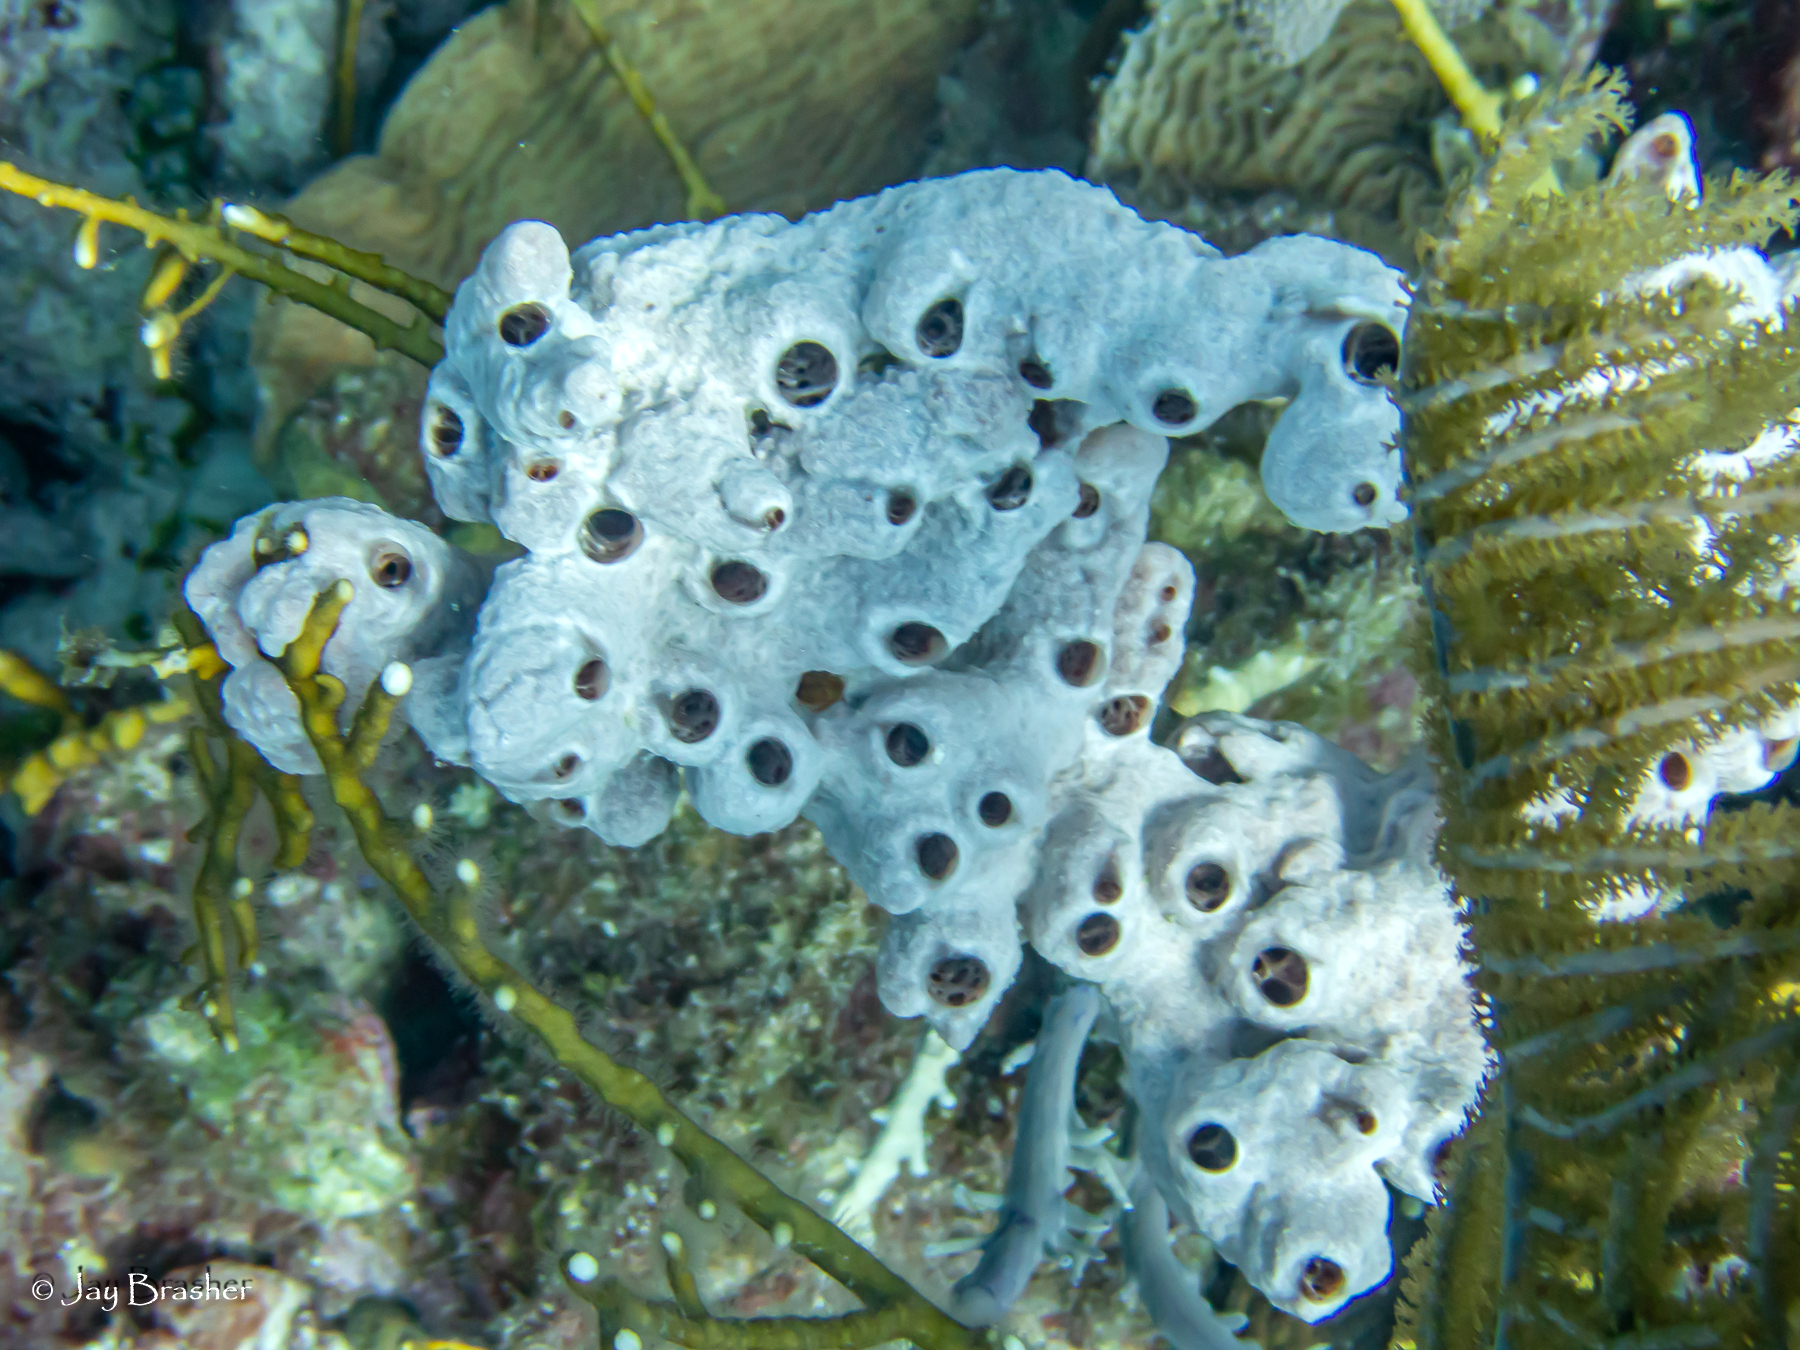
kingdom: Animalia
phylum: Porifera
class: Demospongiae
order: Poecilosclerida
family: Desmacididae
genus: Desmapsamma
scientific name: Desmapsamma anchorata
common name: Lumpy overgrowing sponge
